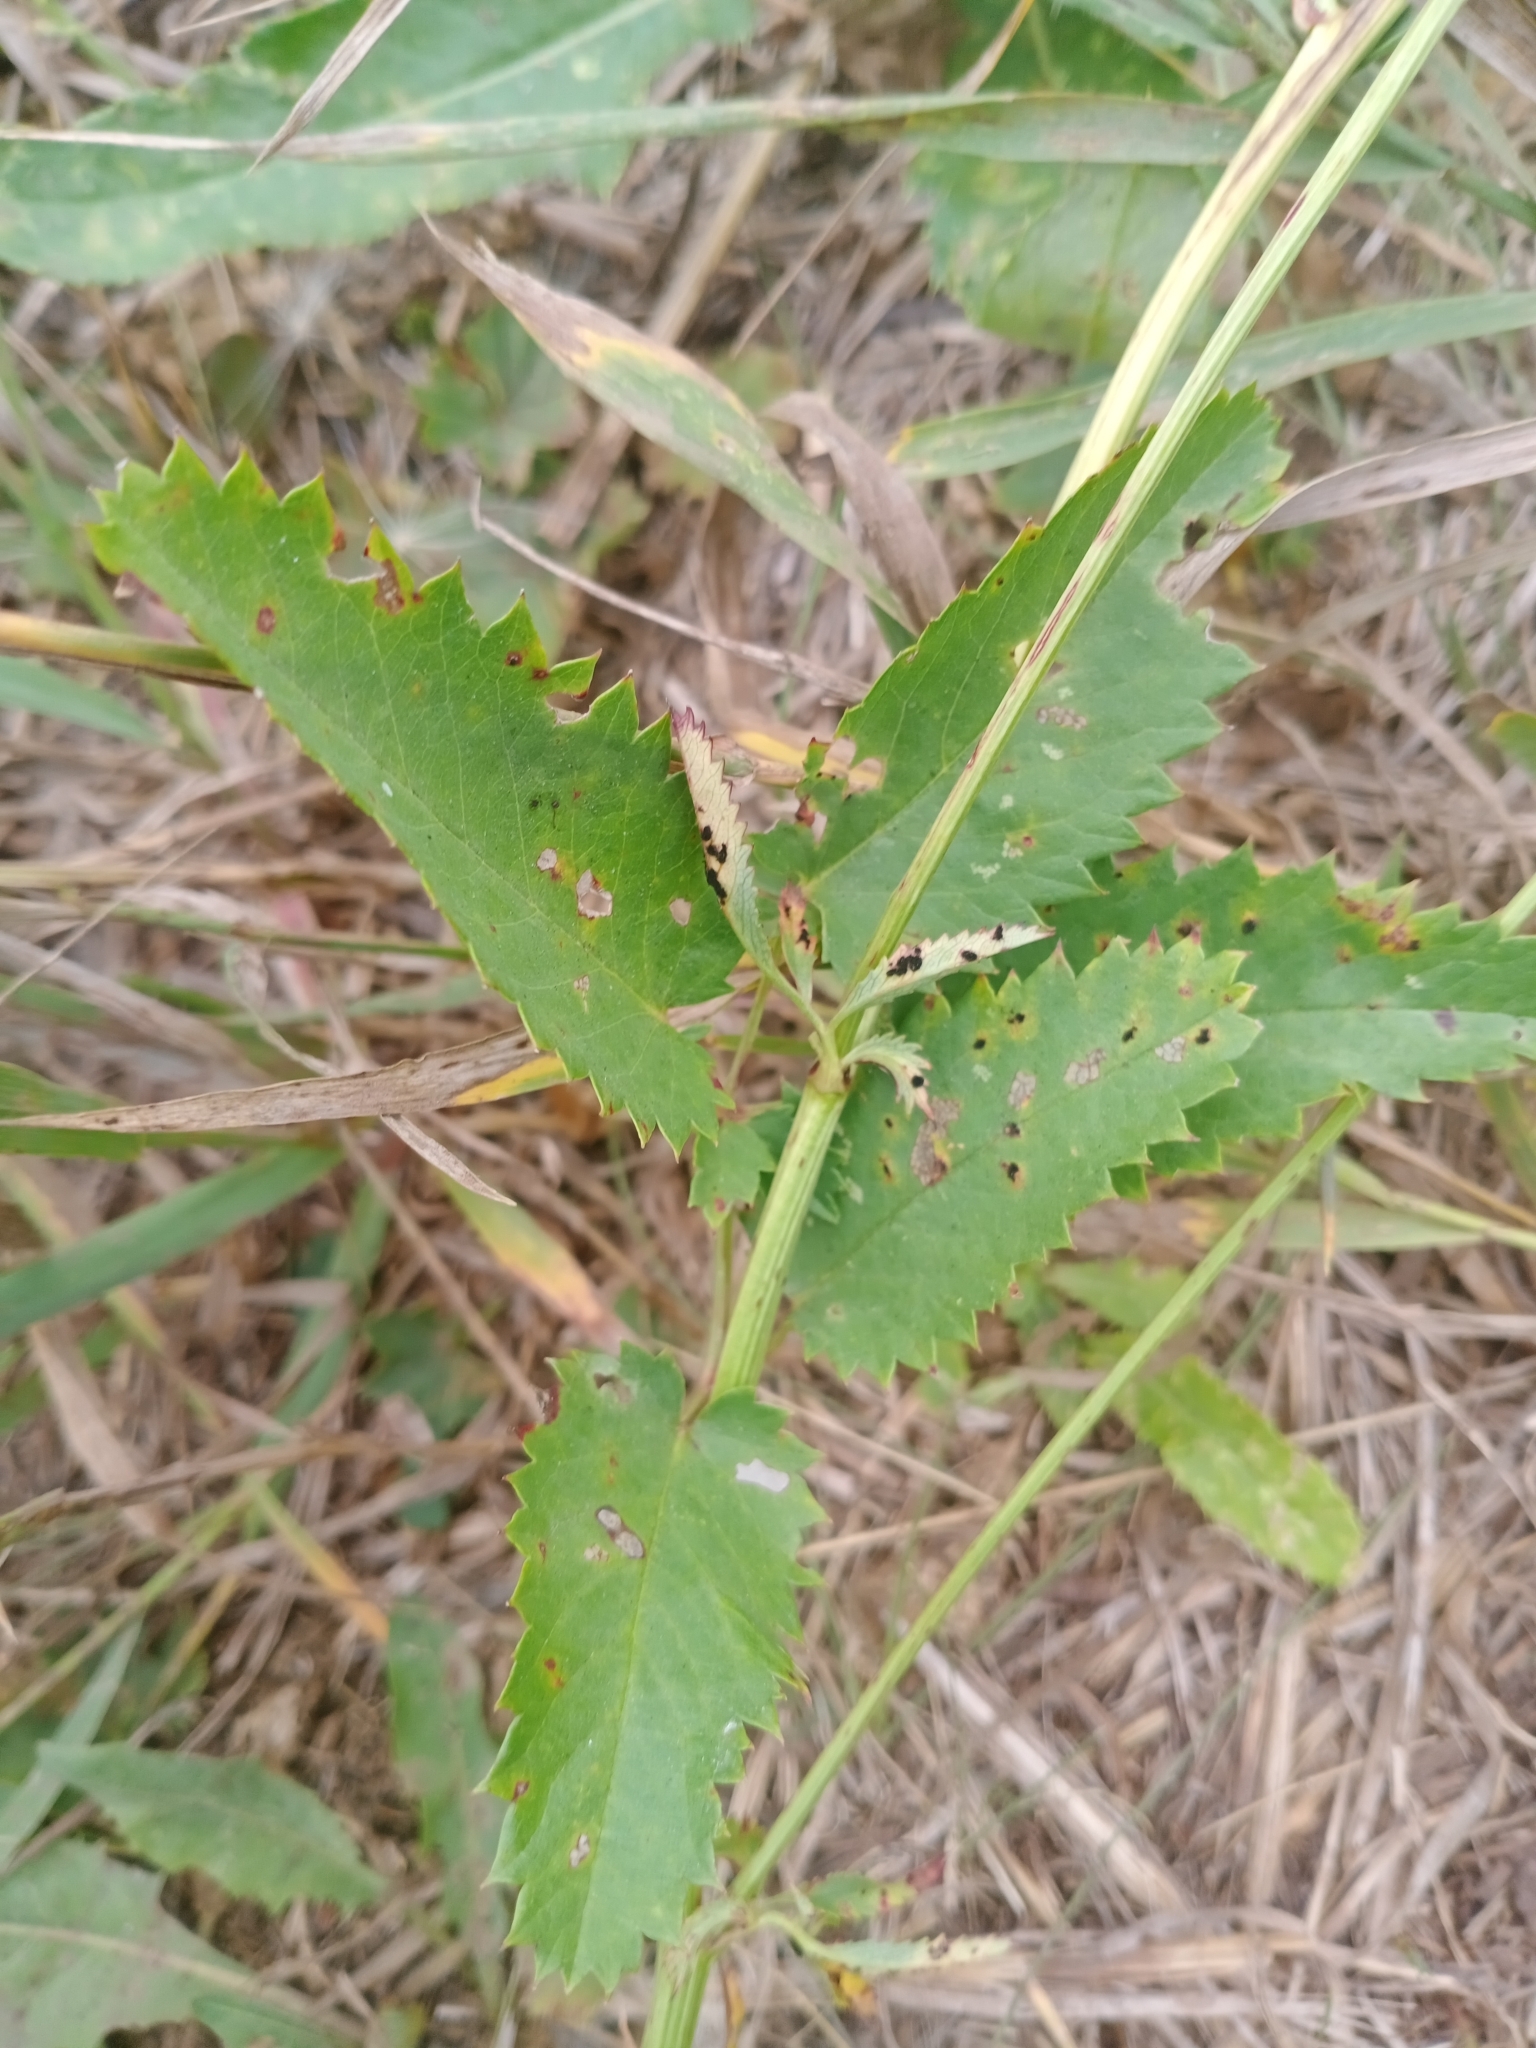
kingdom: Plantae
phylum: Tracheophyta
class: Magnoliopsida
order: Rosales
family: Rosaceae
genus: Sanguisorba
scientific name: Sanguisorba officinalis
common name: Great burnet
